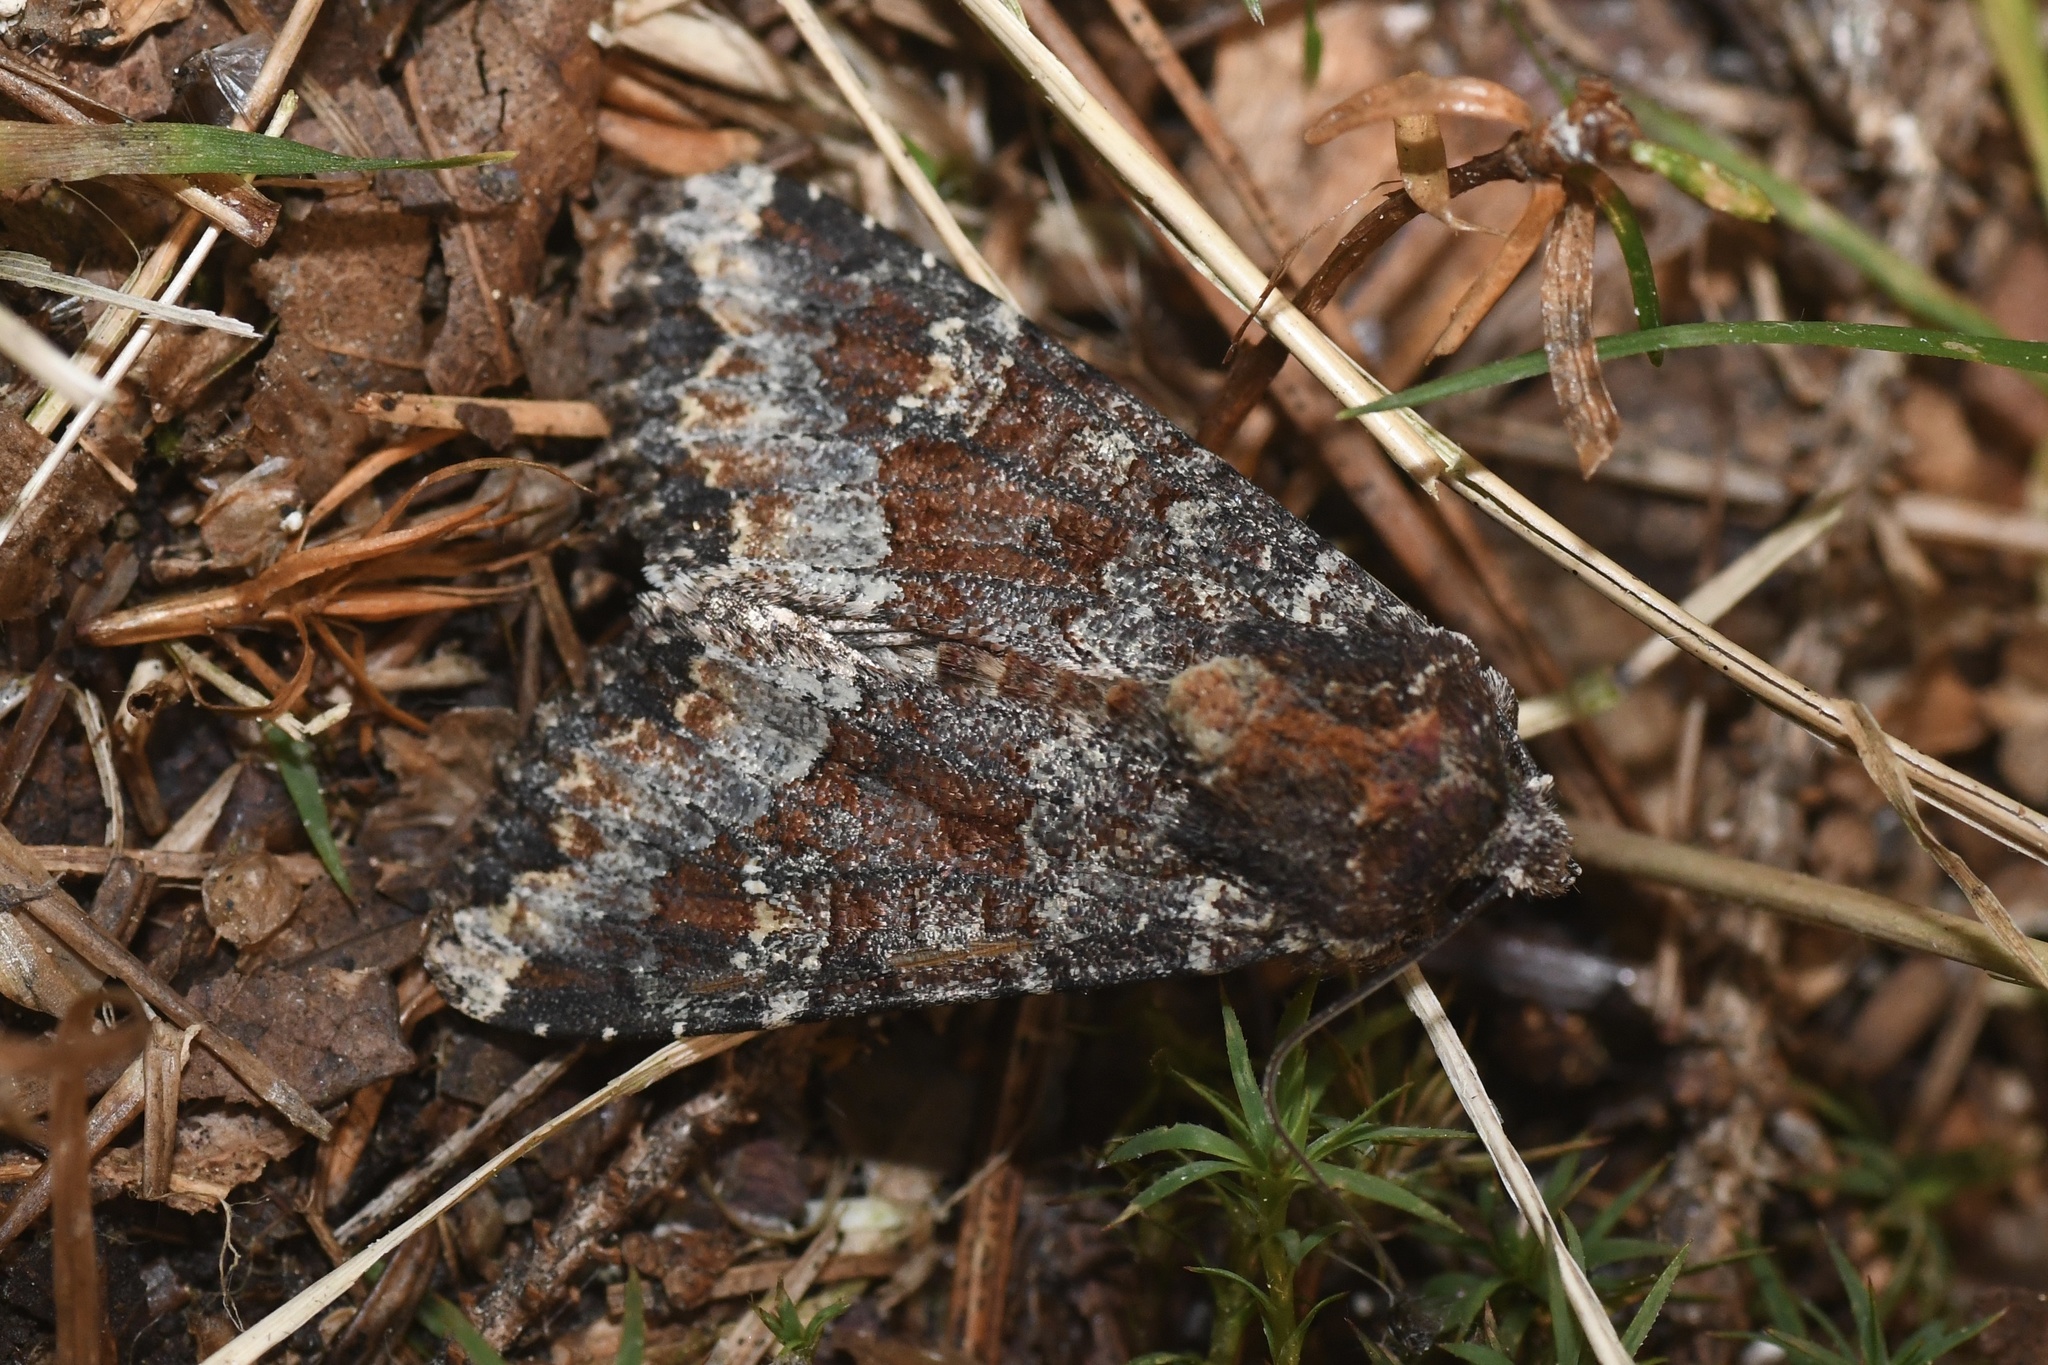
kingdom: Animalia
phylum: Arthropoda
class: Insecta
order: Lepidoptera
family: Noctuidae
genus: Apamea
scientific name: Apamea amputatrix
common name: Yellow-headed cutworm moth
